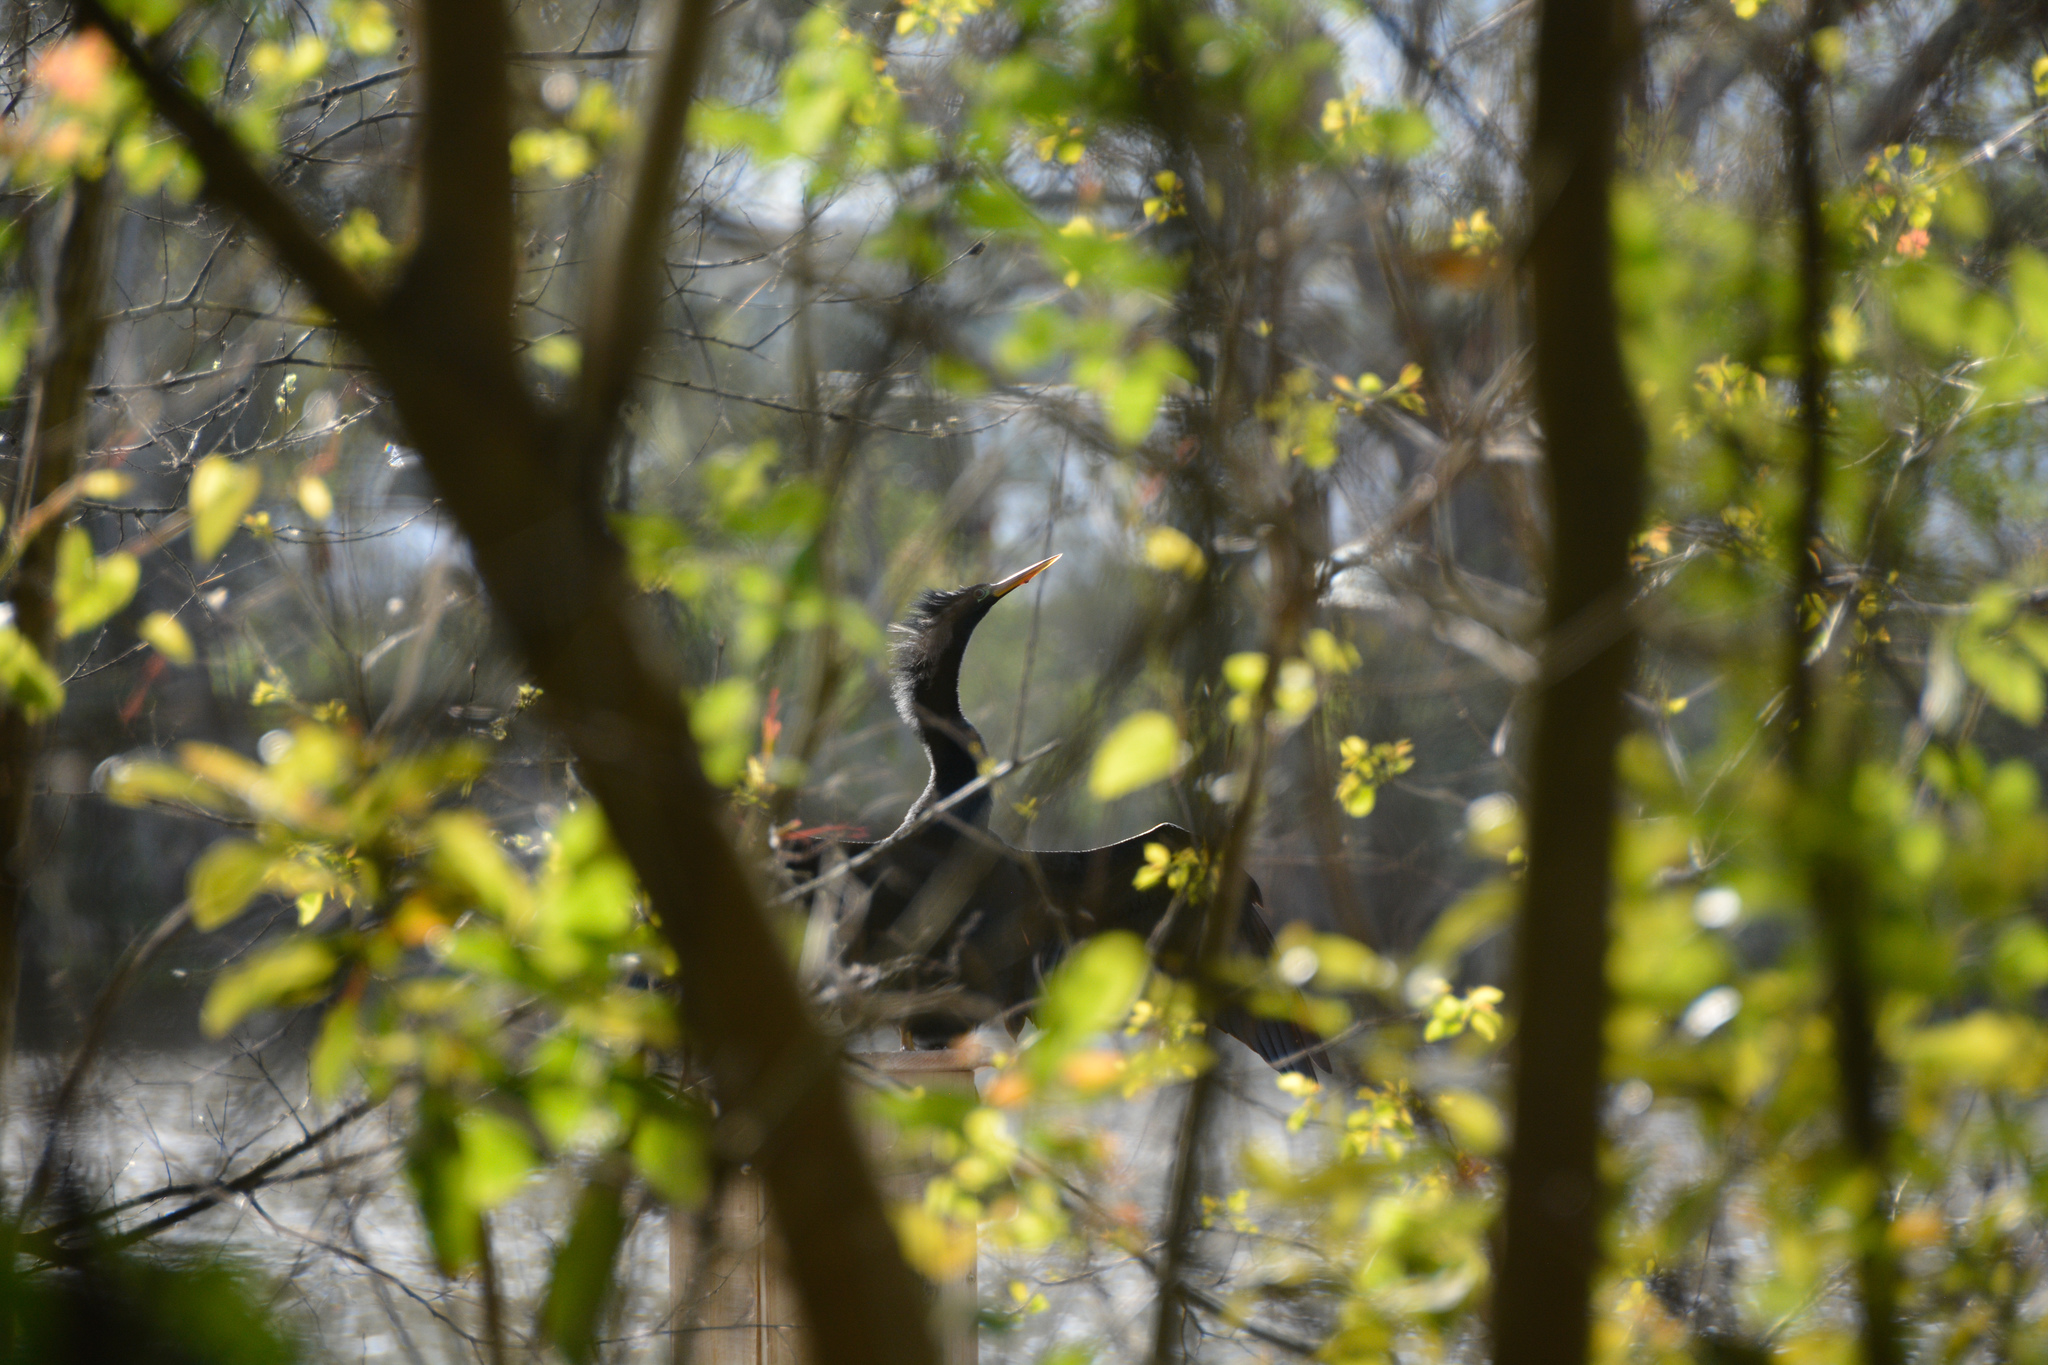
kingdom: Animalia
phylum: Chordata
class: Aves
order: Suliformes
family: Anhingidae
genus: Anhinga
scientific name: Anhinga anhinga
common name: Anhinga
